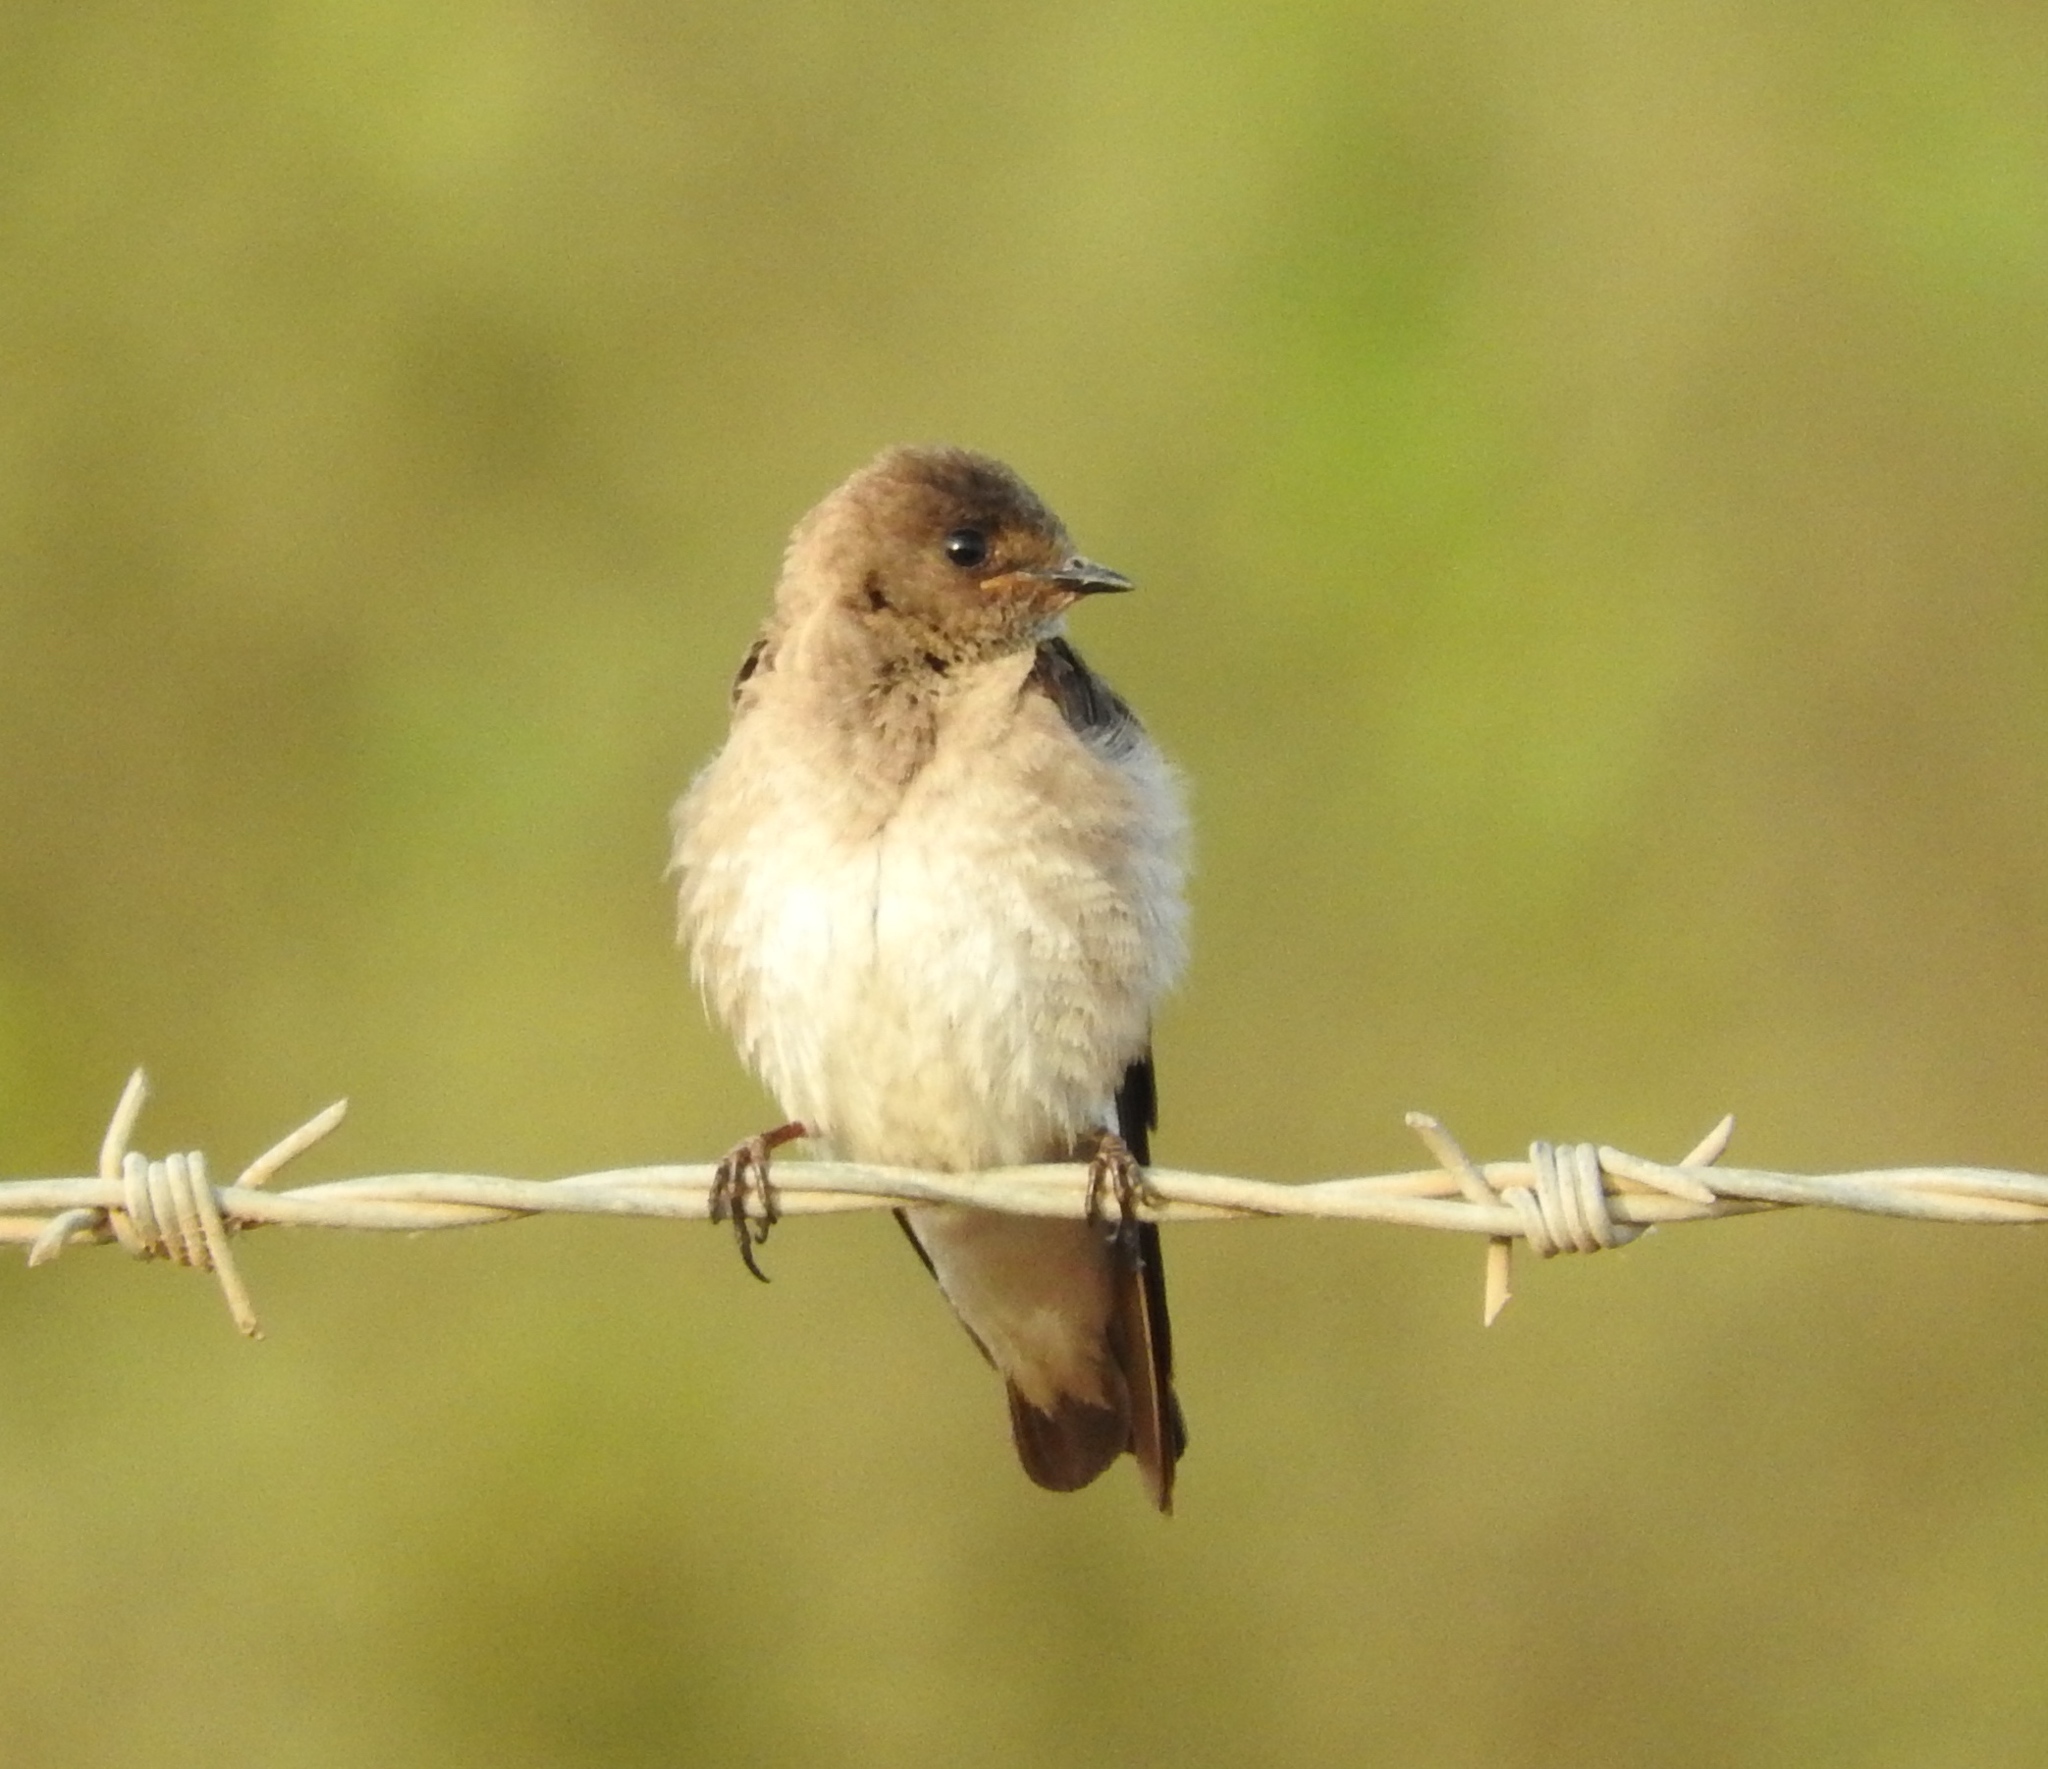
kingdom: Animalia
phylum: Chordata
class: Aves
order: Passeriformes
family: Hirundinidae
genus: Stelgidopteryx
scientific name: Stelgidopteryx serripennis
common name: Northern rough-winged swallow
